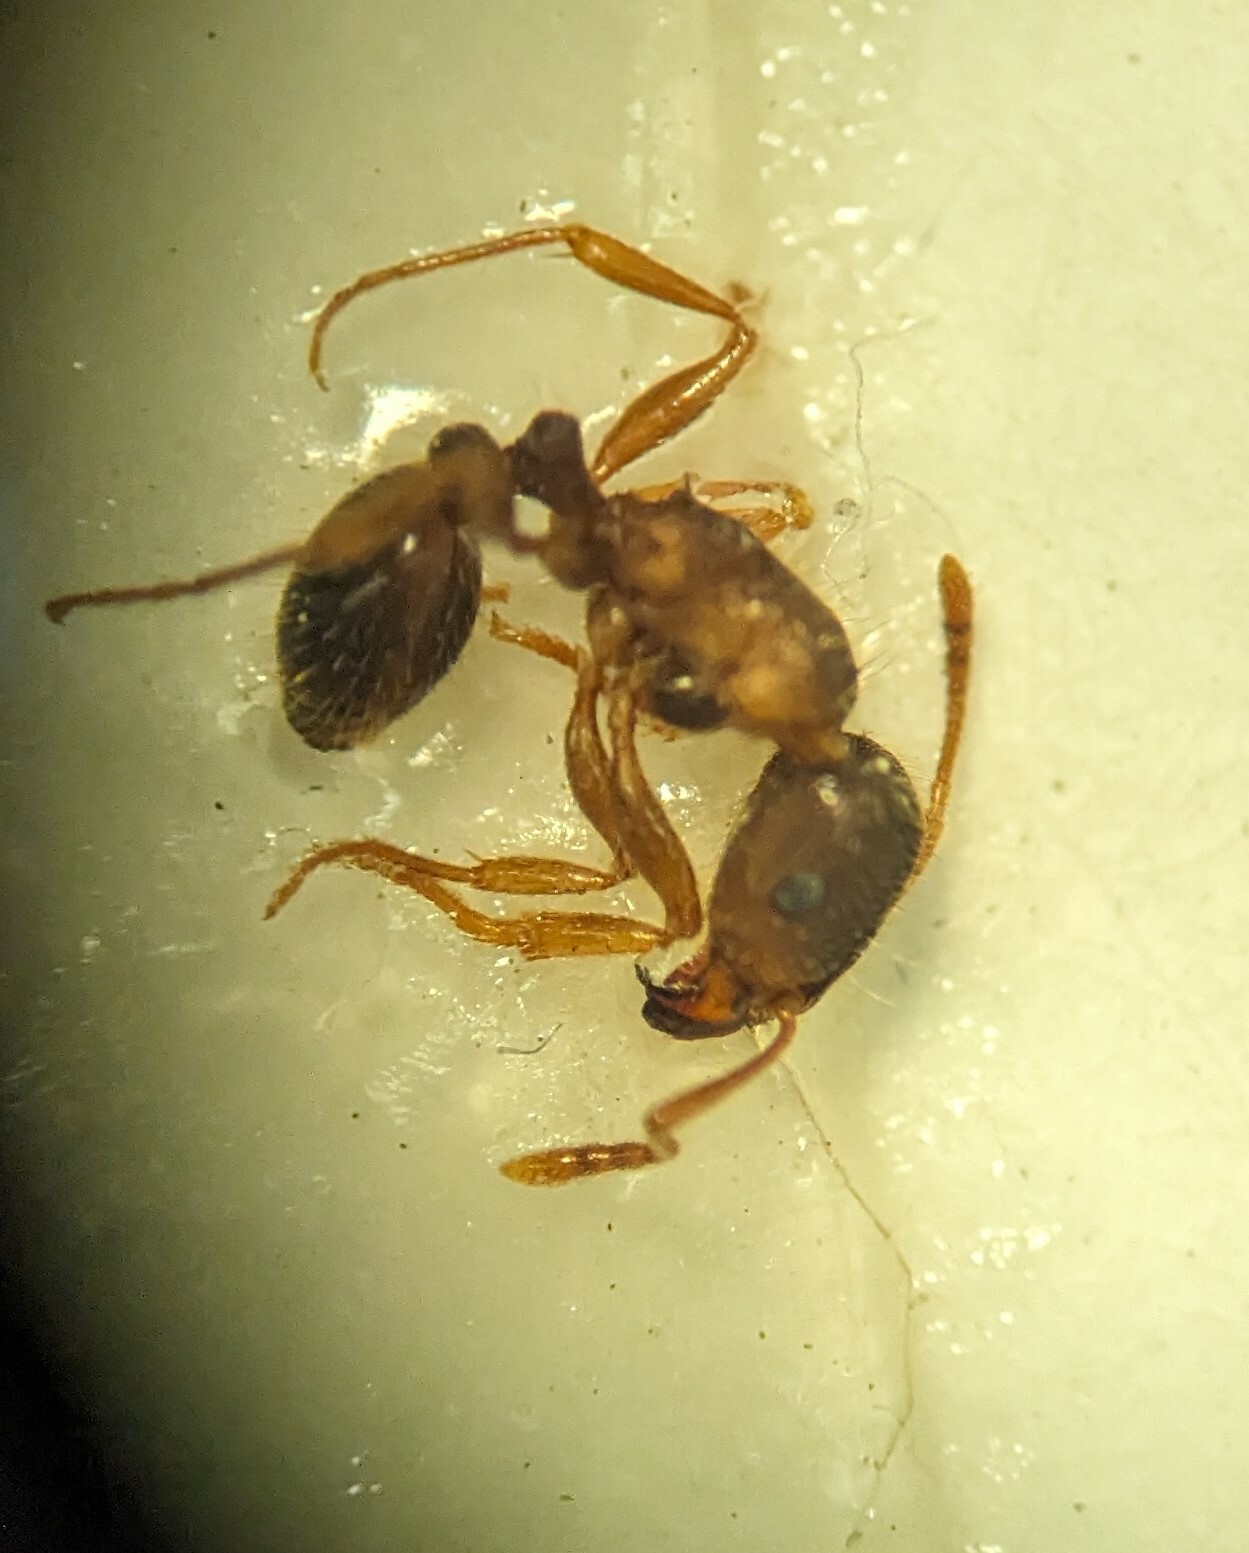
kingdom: Animalia
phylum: Arthropoda
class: Insecta
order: Hymenoptera
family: Formicidae
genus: Tetramorium
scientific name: Tetramorium immigrans
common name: Pavement ant
